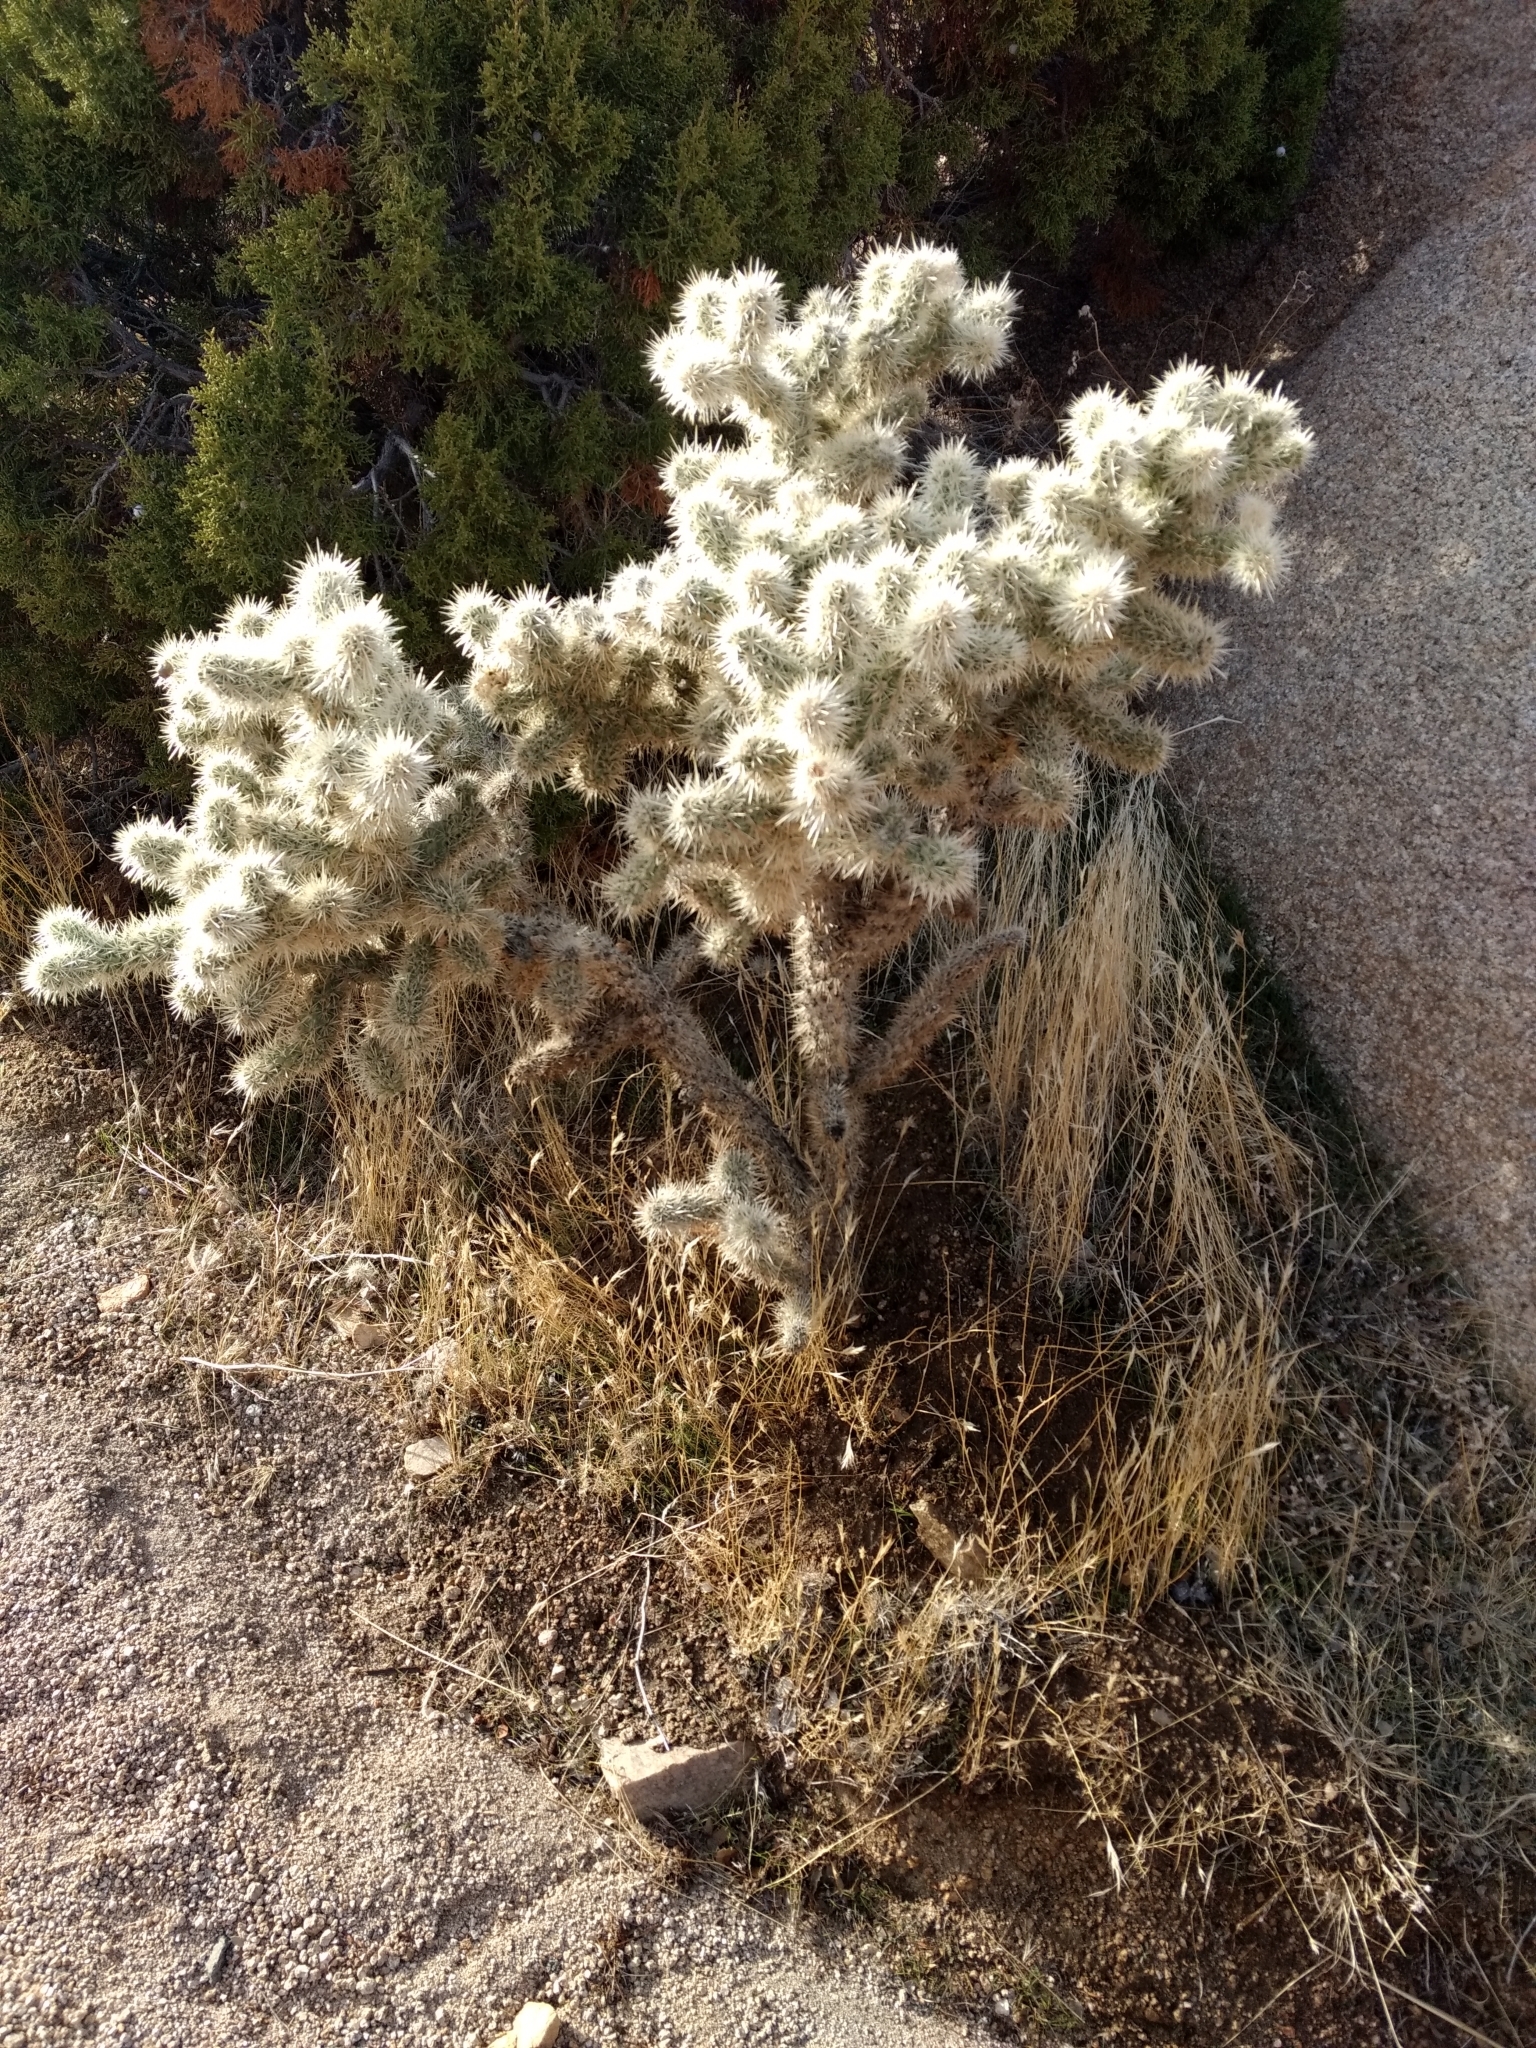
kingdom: Plantae
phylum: Tracheophyta
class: Magnoliopsida
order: Caryophyllales
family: Cactaceae
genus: Cylindropuntia
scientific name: Cylindropuntia echinocarpa
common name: Ground cholla
